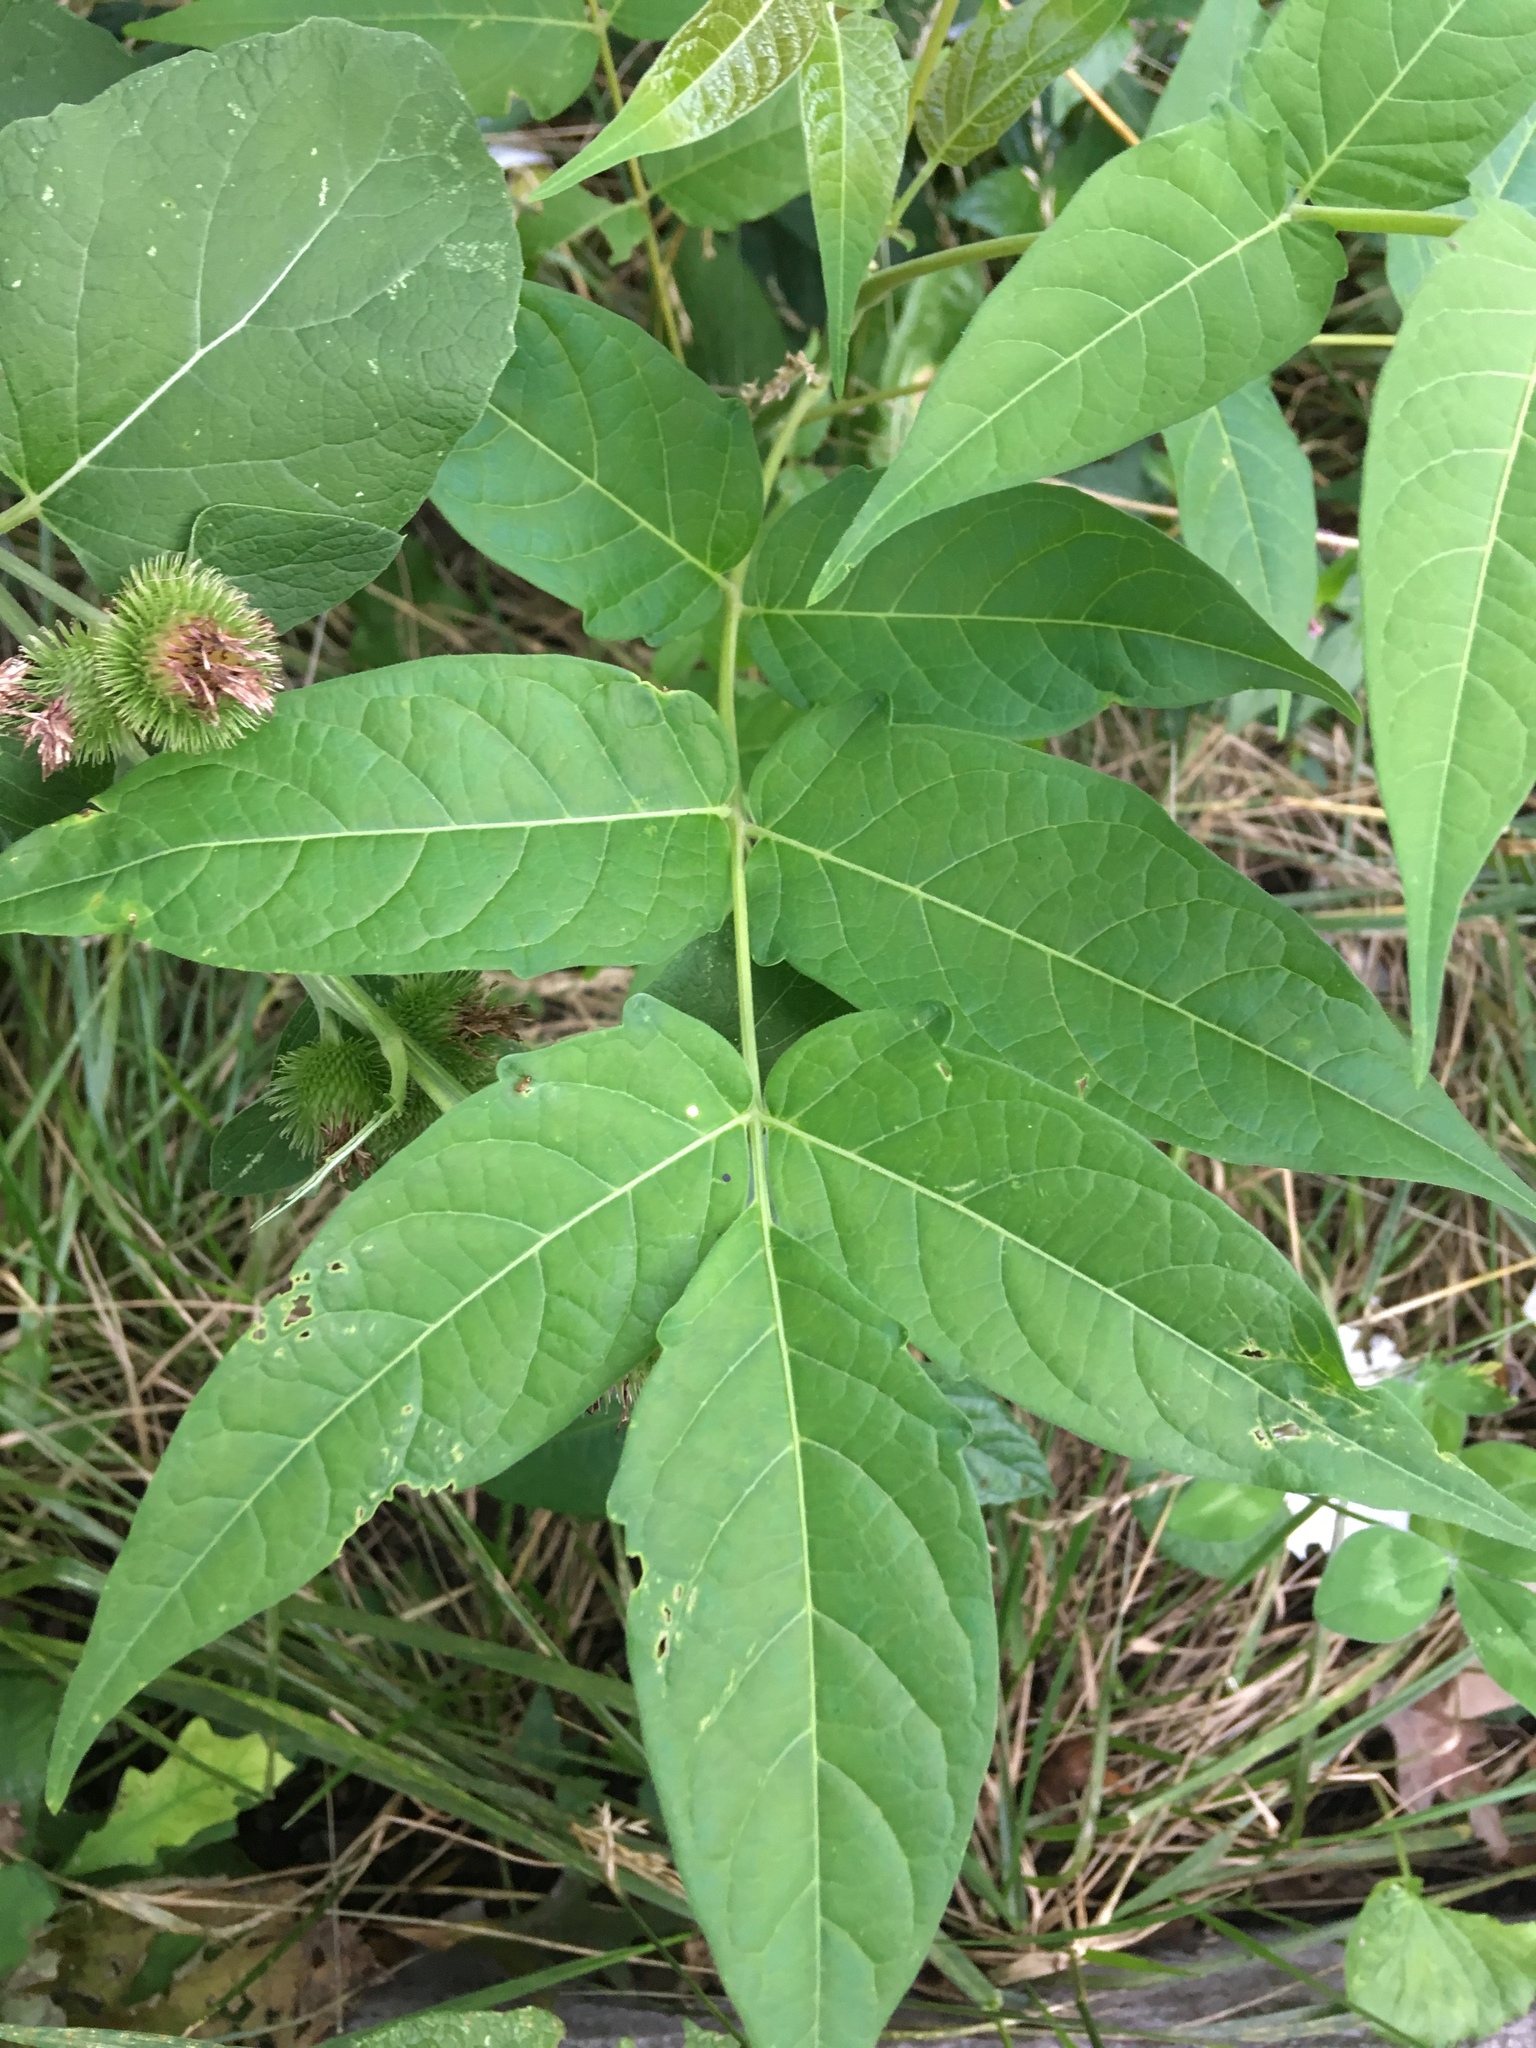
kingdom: Plantae
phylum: Tracheophyta
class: Magnoliopsida
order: Sapindales
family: Simaroubaceae
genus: Ailanthus
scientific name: Ailanthus altissima
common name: Tree-of-heaven
